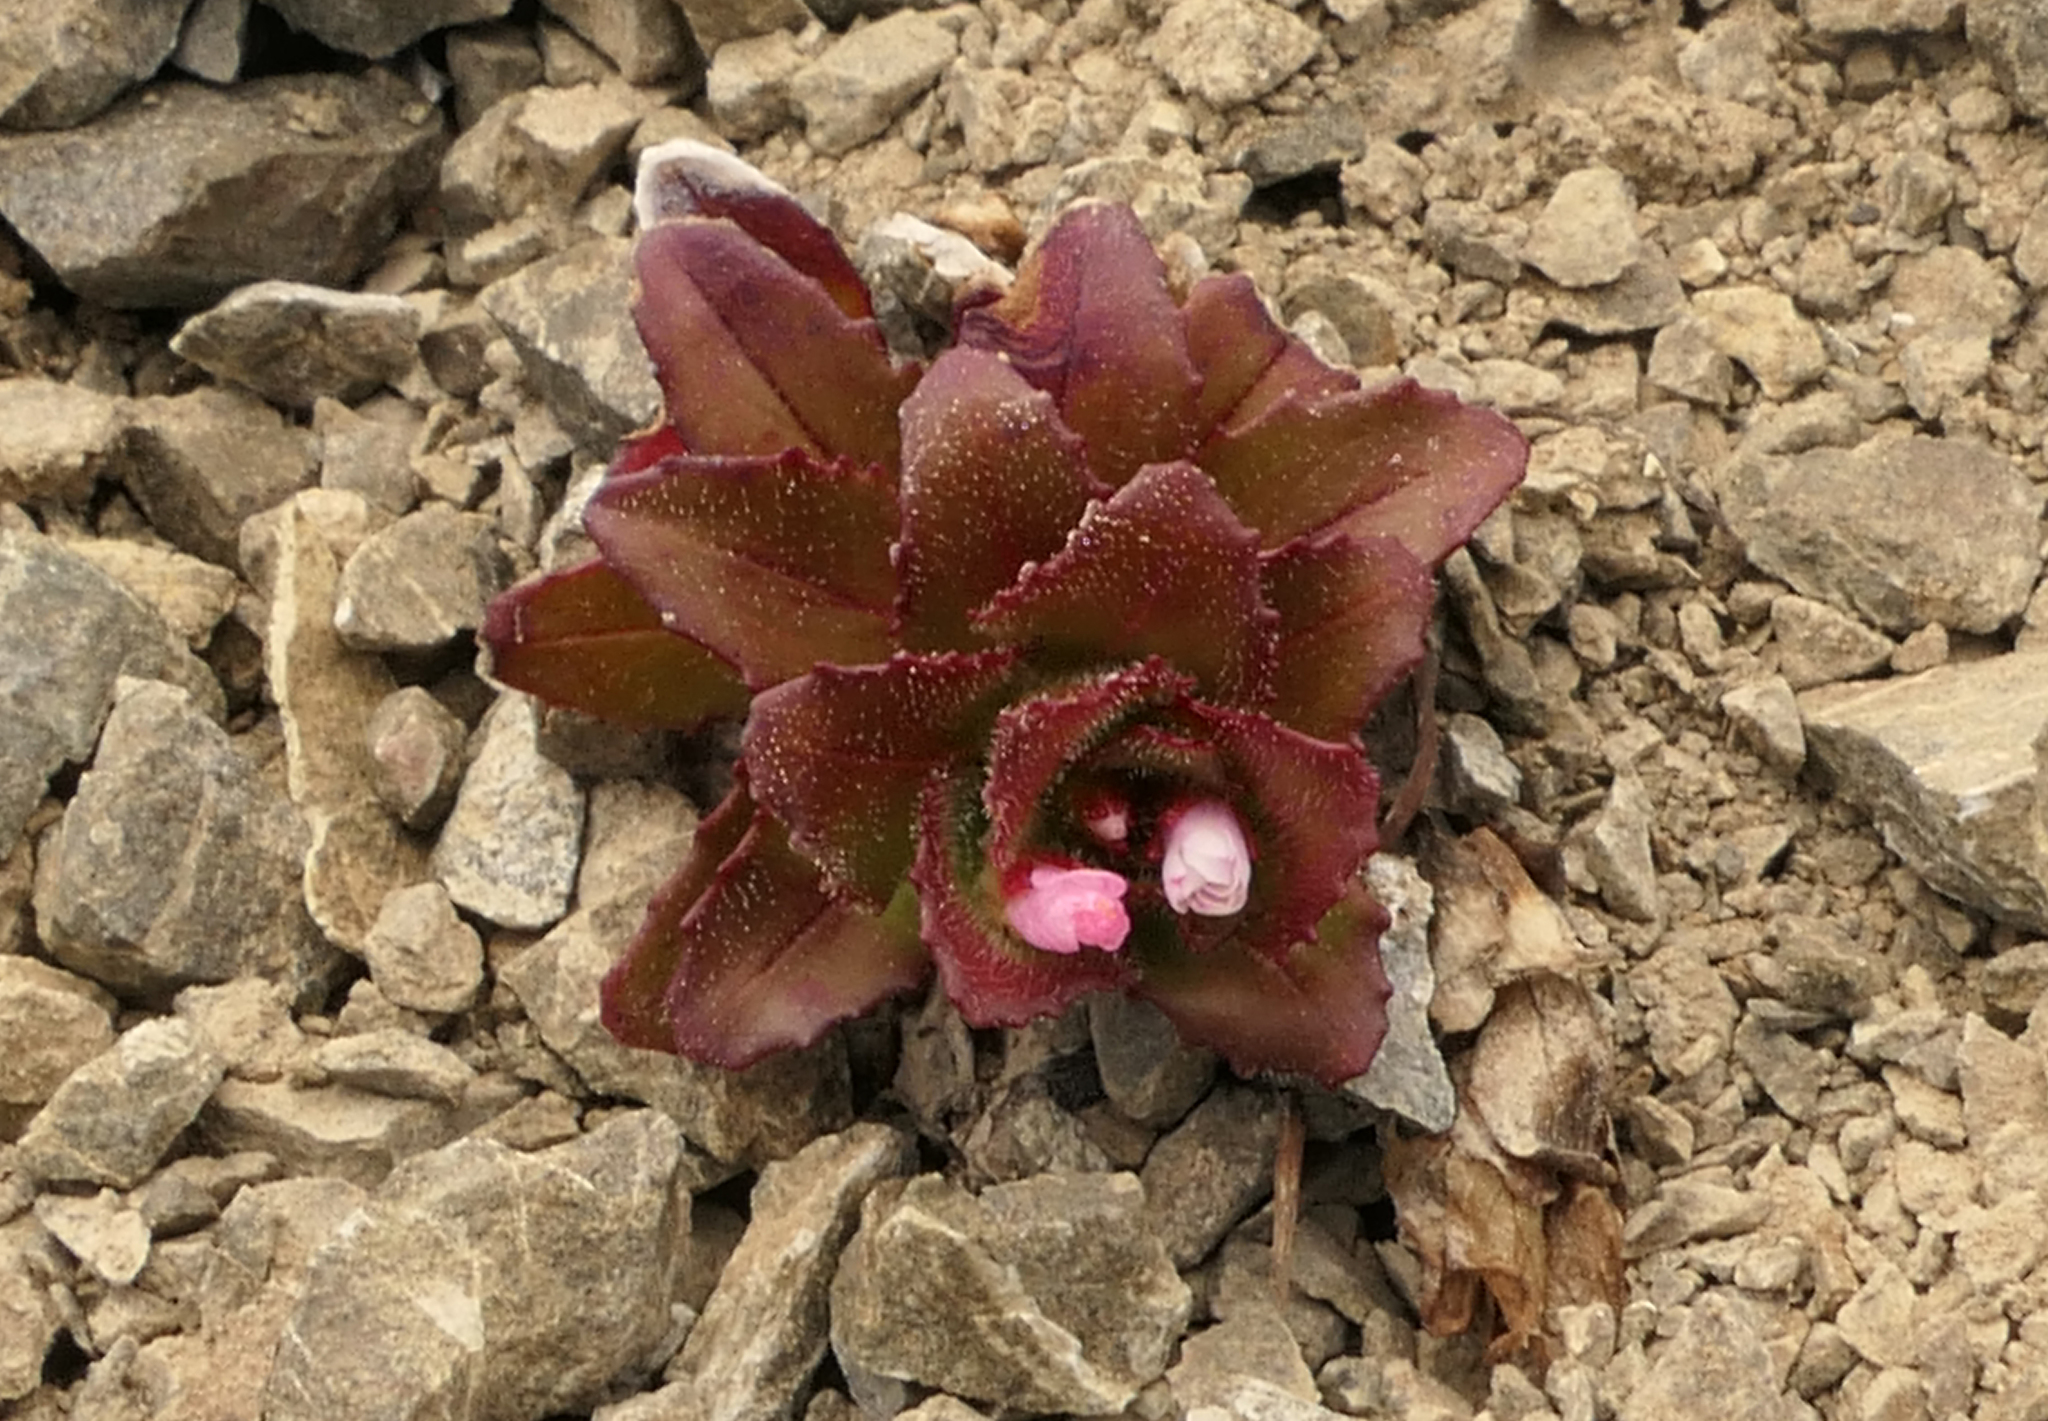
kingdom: Plantae
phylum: Tracheophyta
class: Magnoliopsida
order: Myrtales
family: Onagraceae
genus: Epilobium
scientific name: Epilobium forbesii
